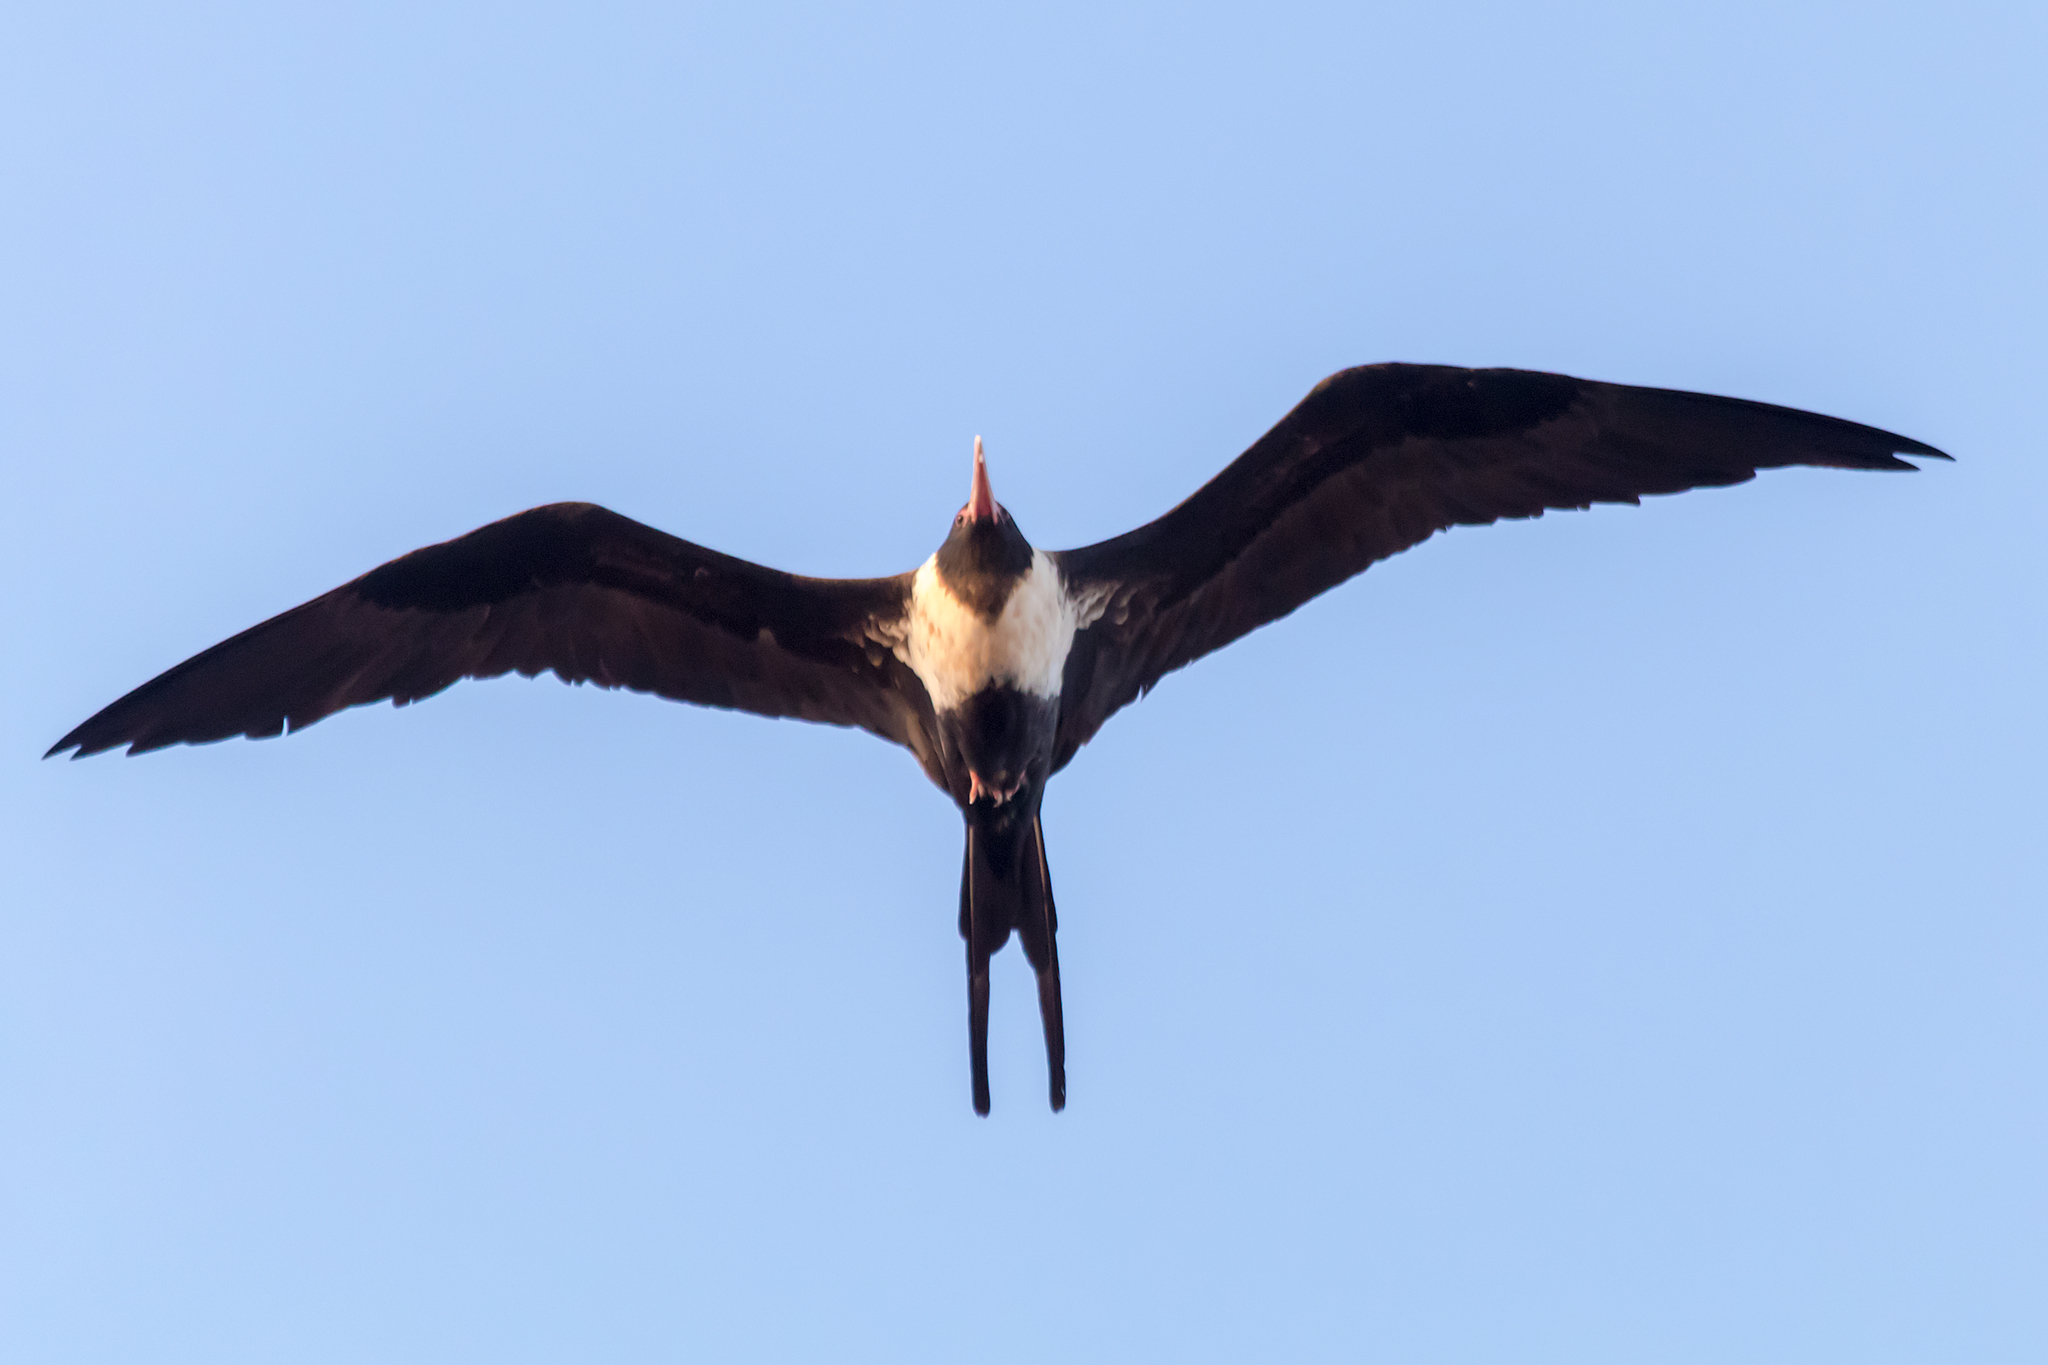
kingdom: Animalia
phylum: Chordata
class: Aves
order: Suliformes
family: Fregatidae
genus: Fregata
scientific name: Fregata ariel
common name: Lesser frigatebird
